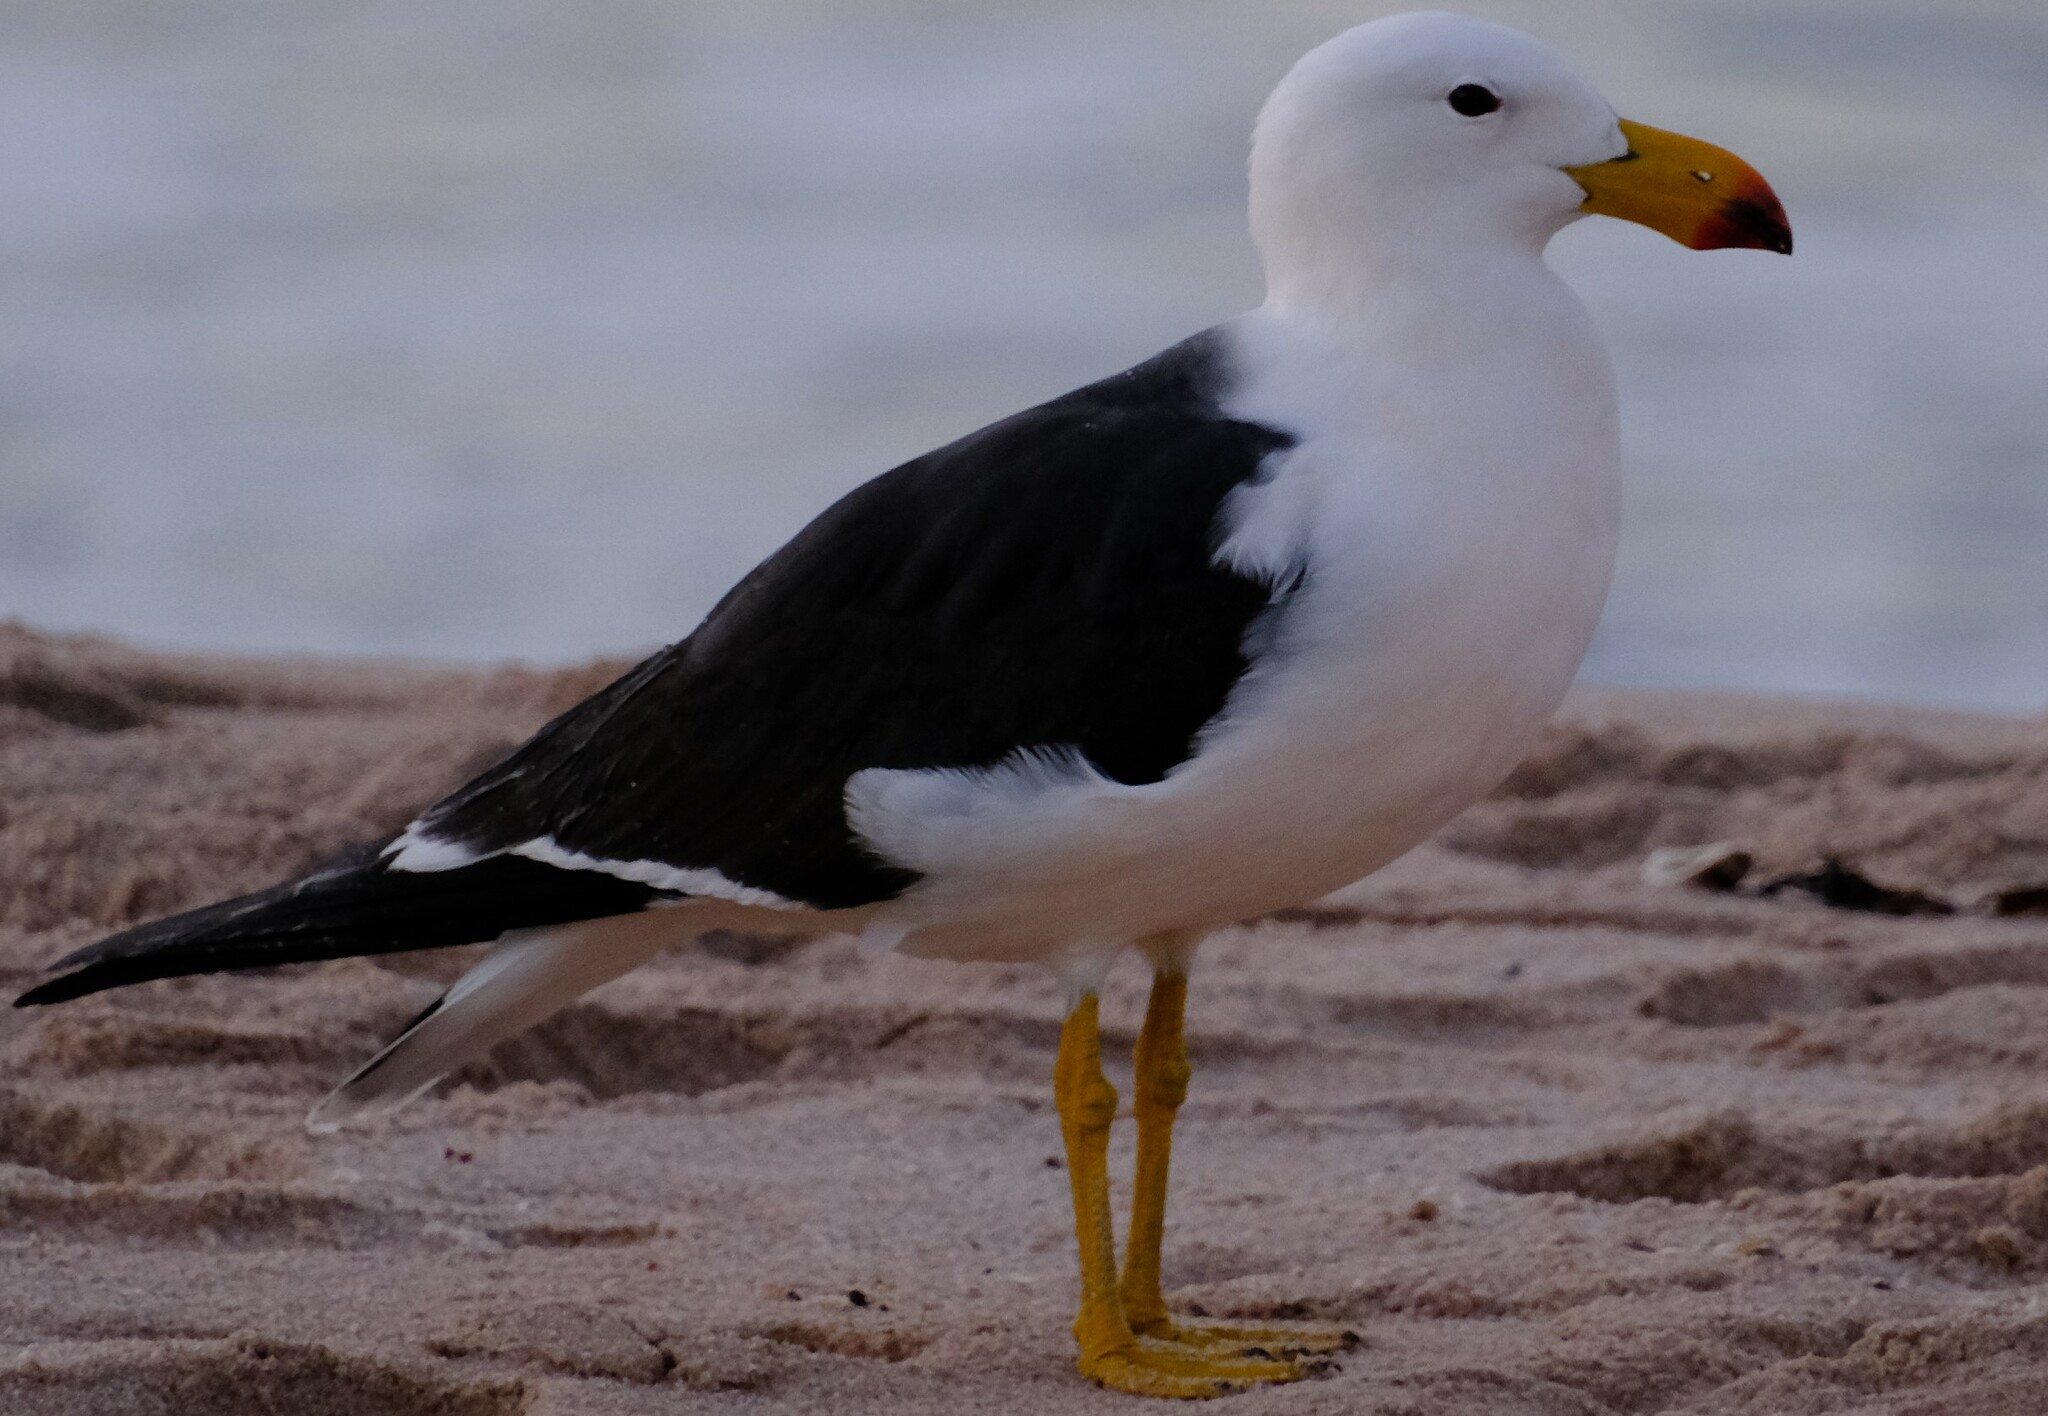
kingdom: Animalia
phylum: Chordata
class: Aves
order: Charadriiformes
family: Laridae
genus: Larus
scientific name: Larus pacificus
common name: Pacific gull
